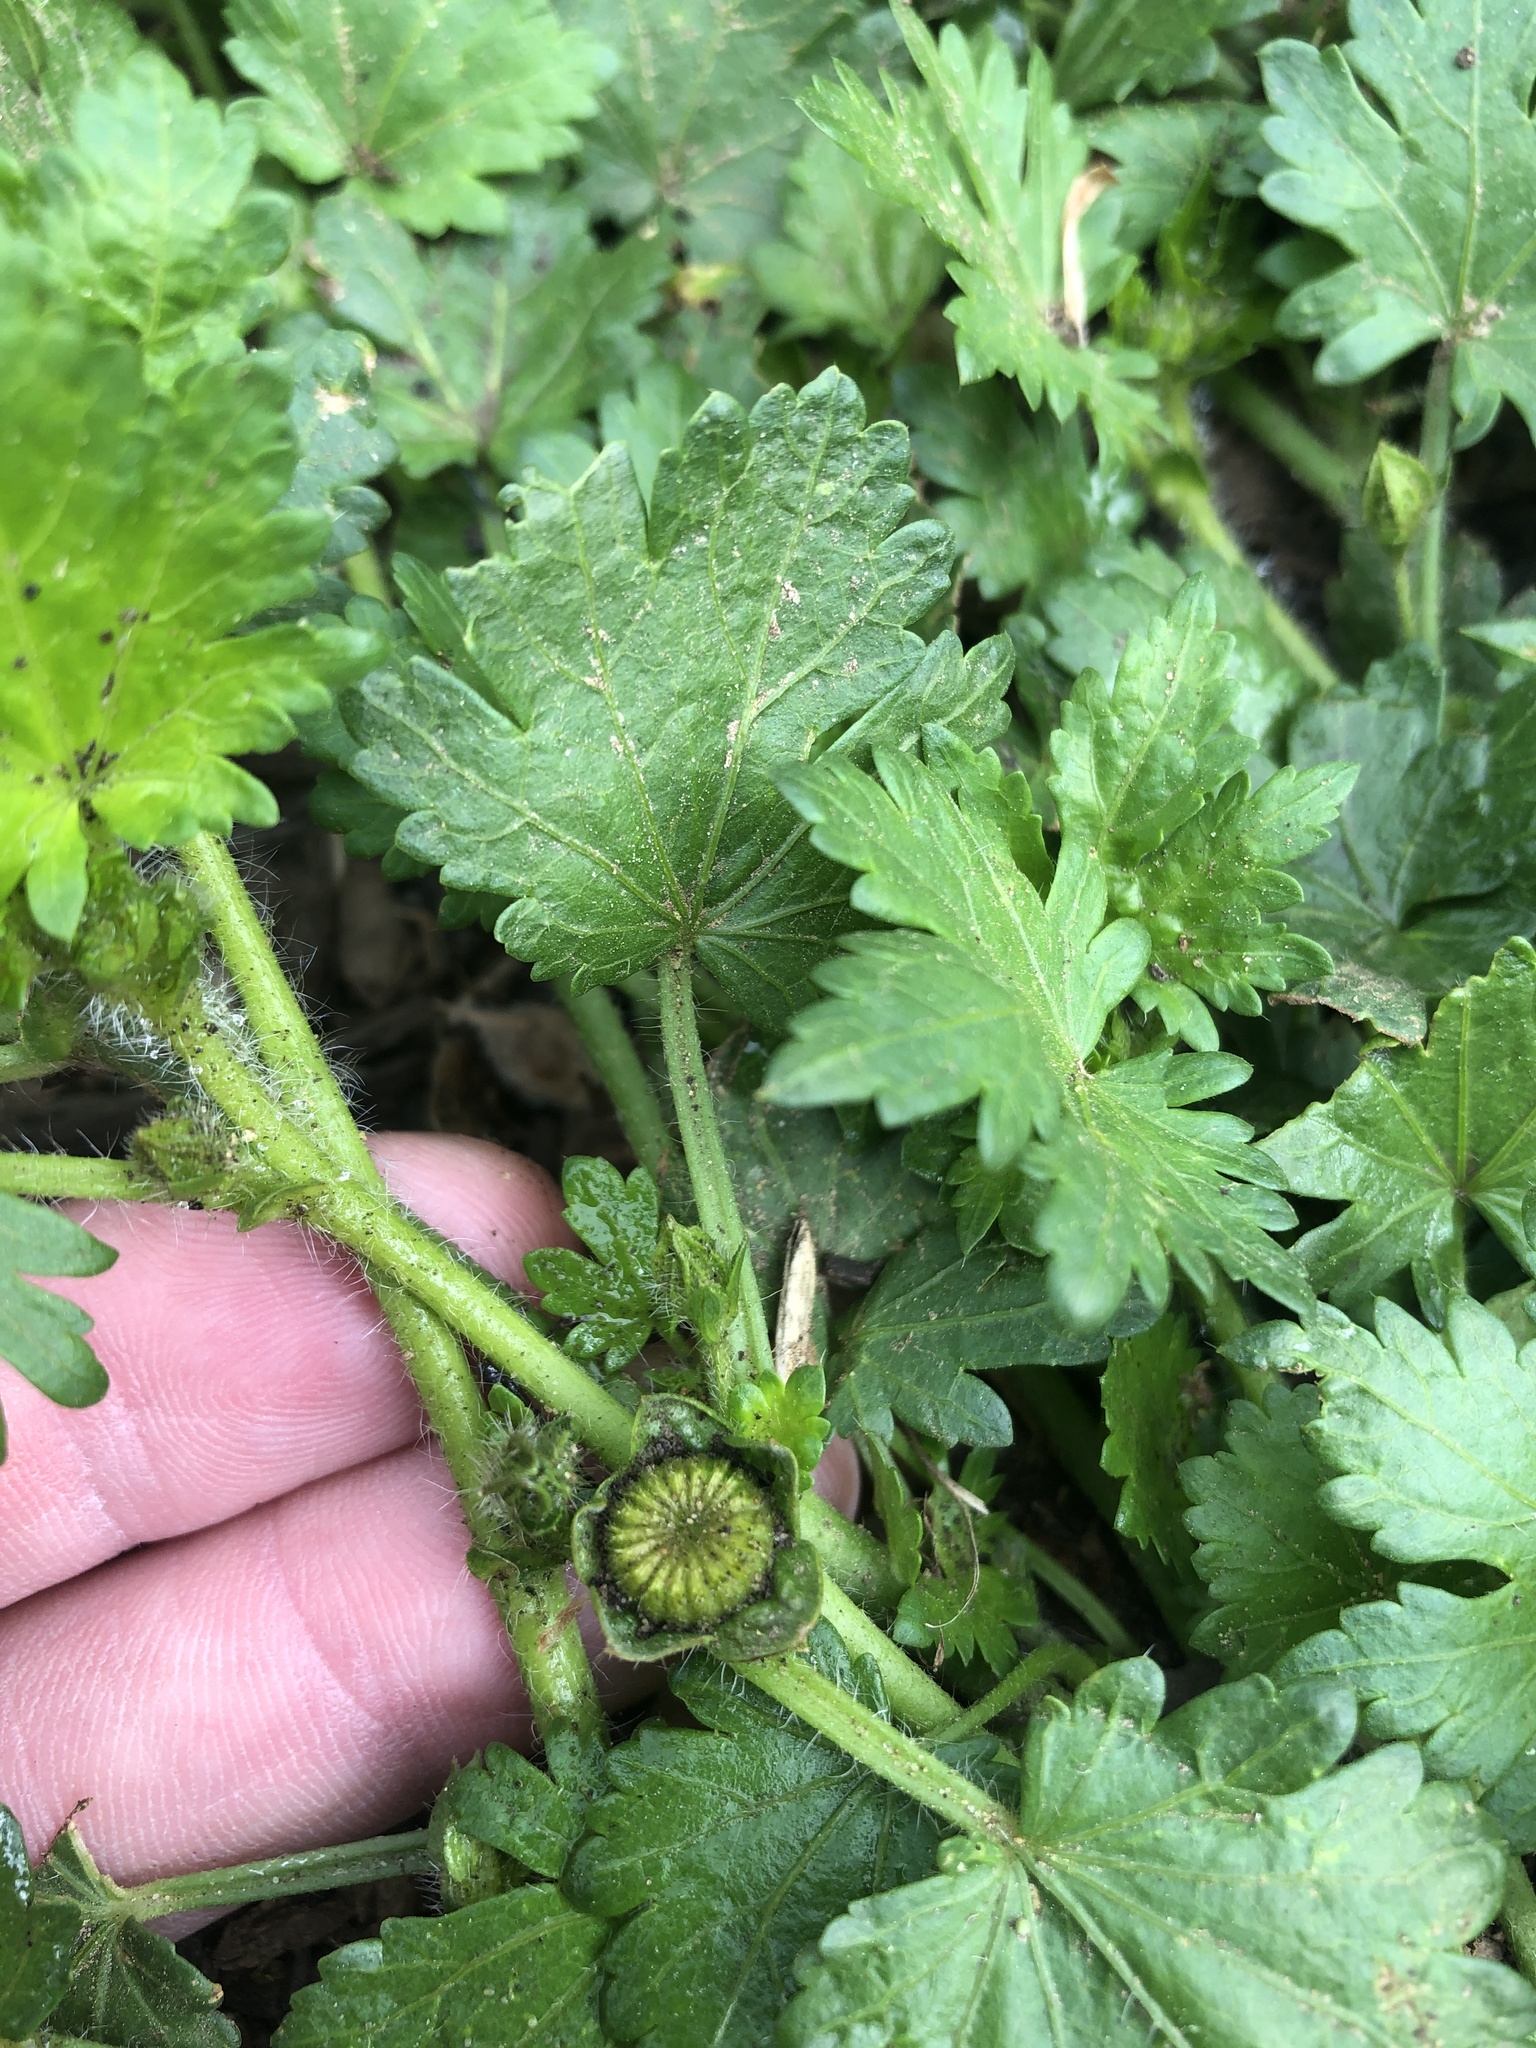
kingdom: Plantae
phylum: Tracheophyta
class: Magnoliopsida
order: Malvales
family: Malvaceae
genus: Modiola
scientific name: Modiola caroliniana
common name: Carolina bristlemallow
